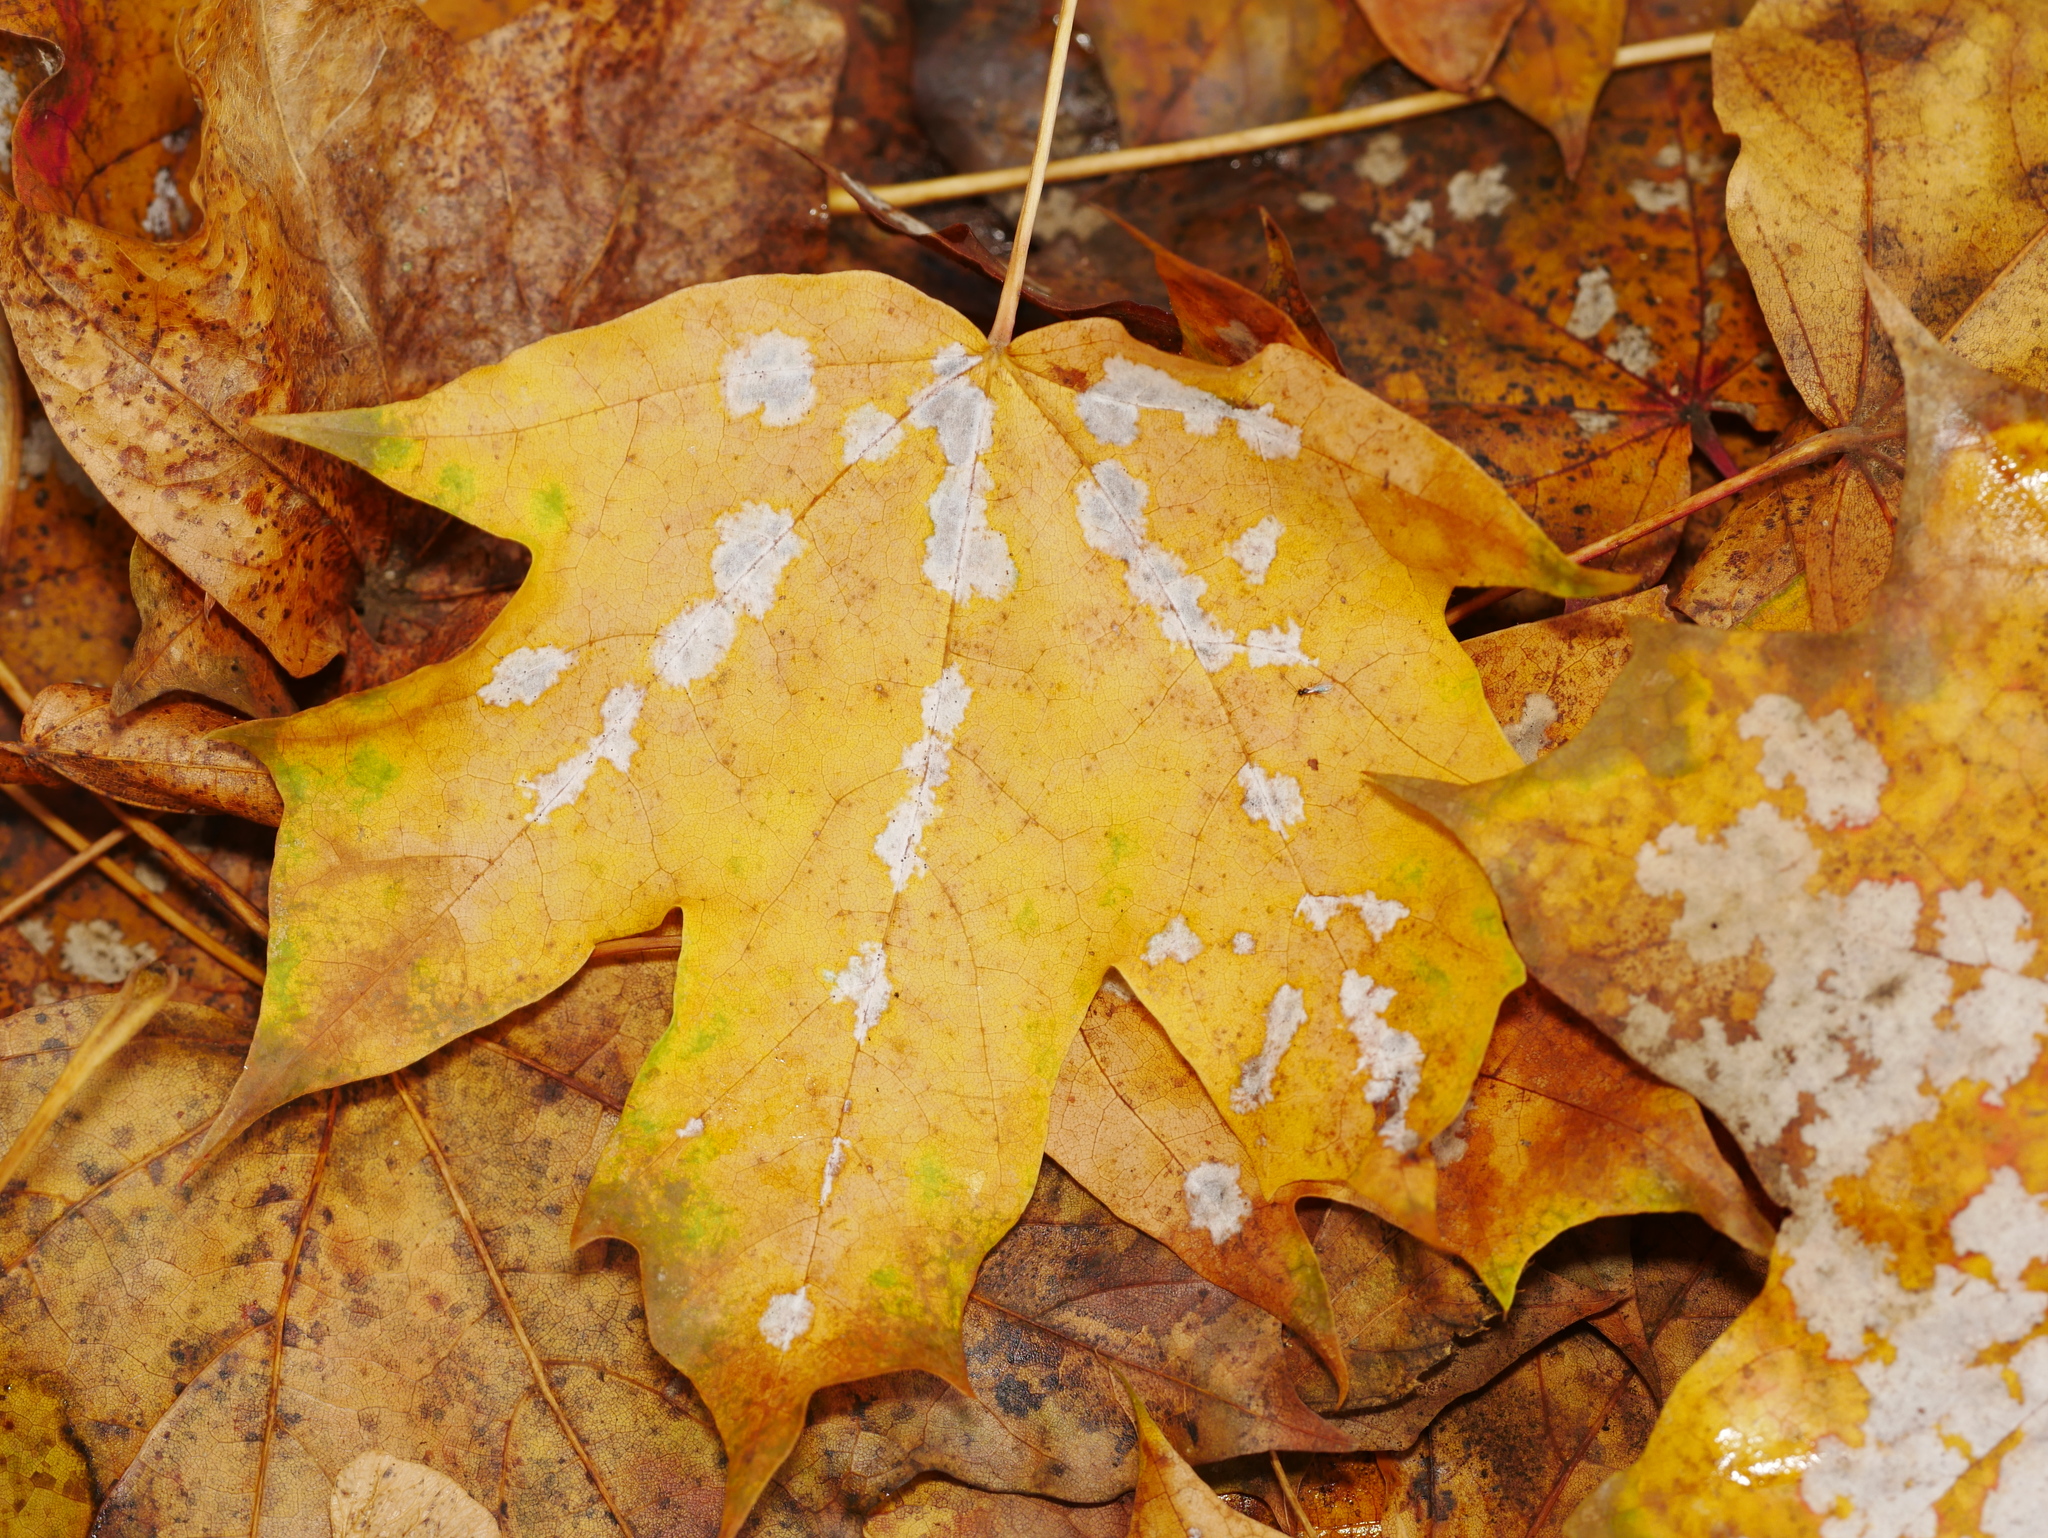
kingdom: Fungi
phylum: Ascomycota
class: Leotiomycetes
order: Helotiales
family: Erysiphaceae
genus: Sawadaea
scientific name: Sawadaea tulasnei
